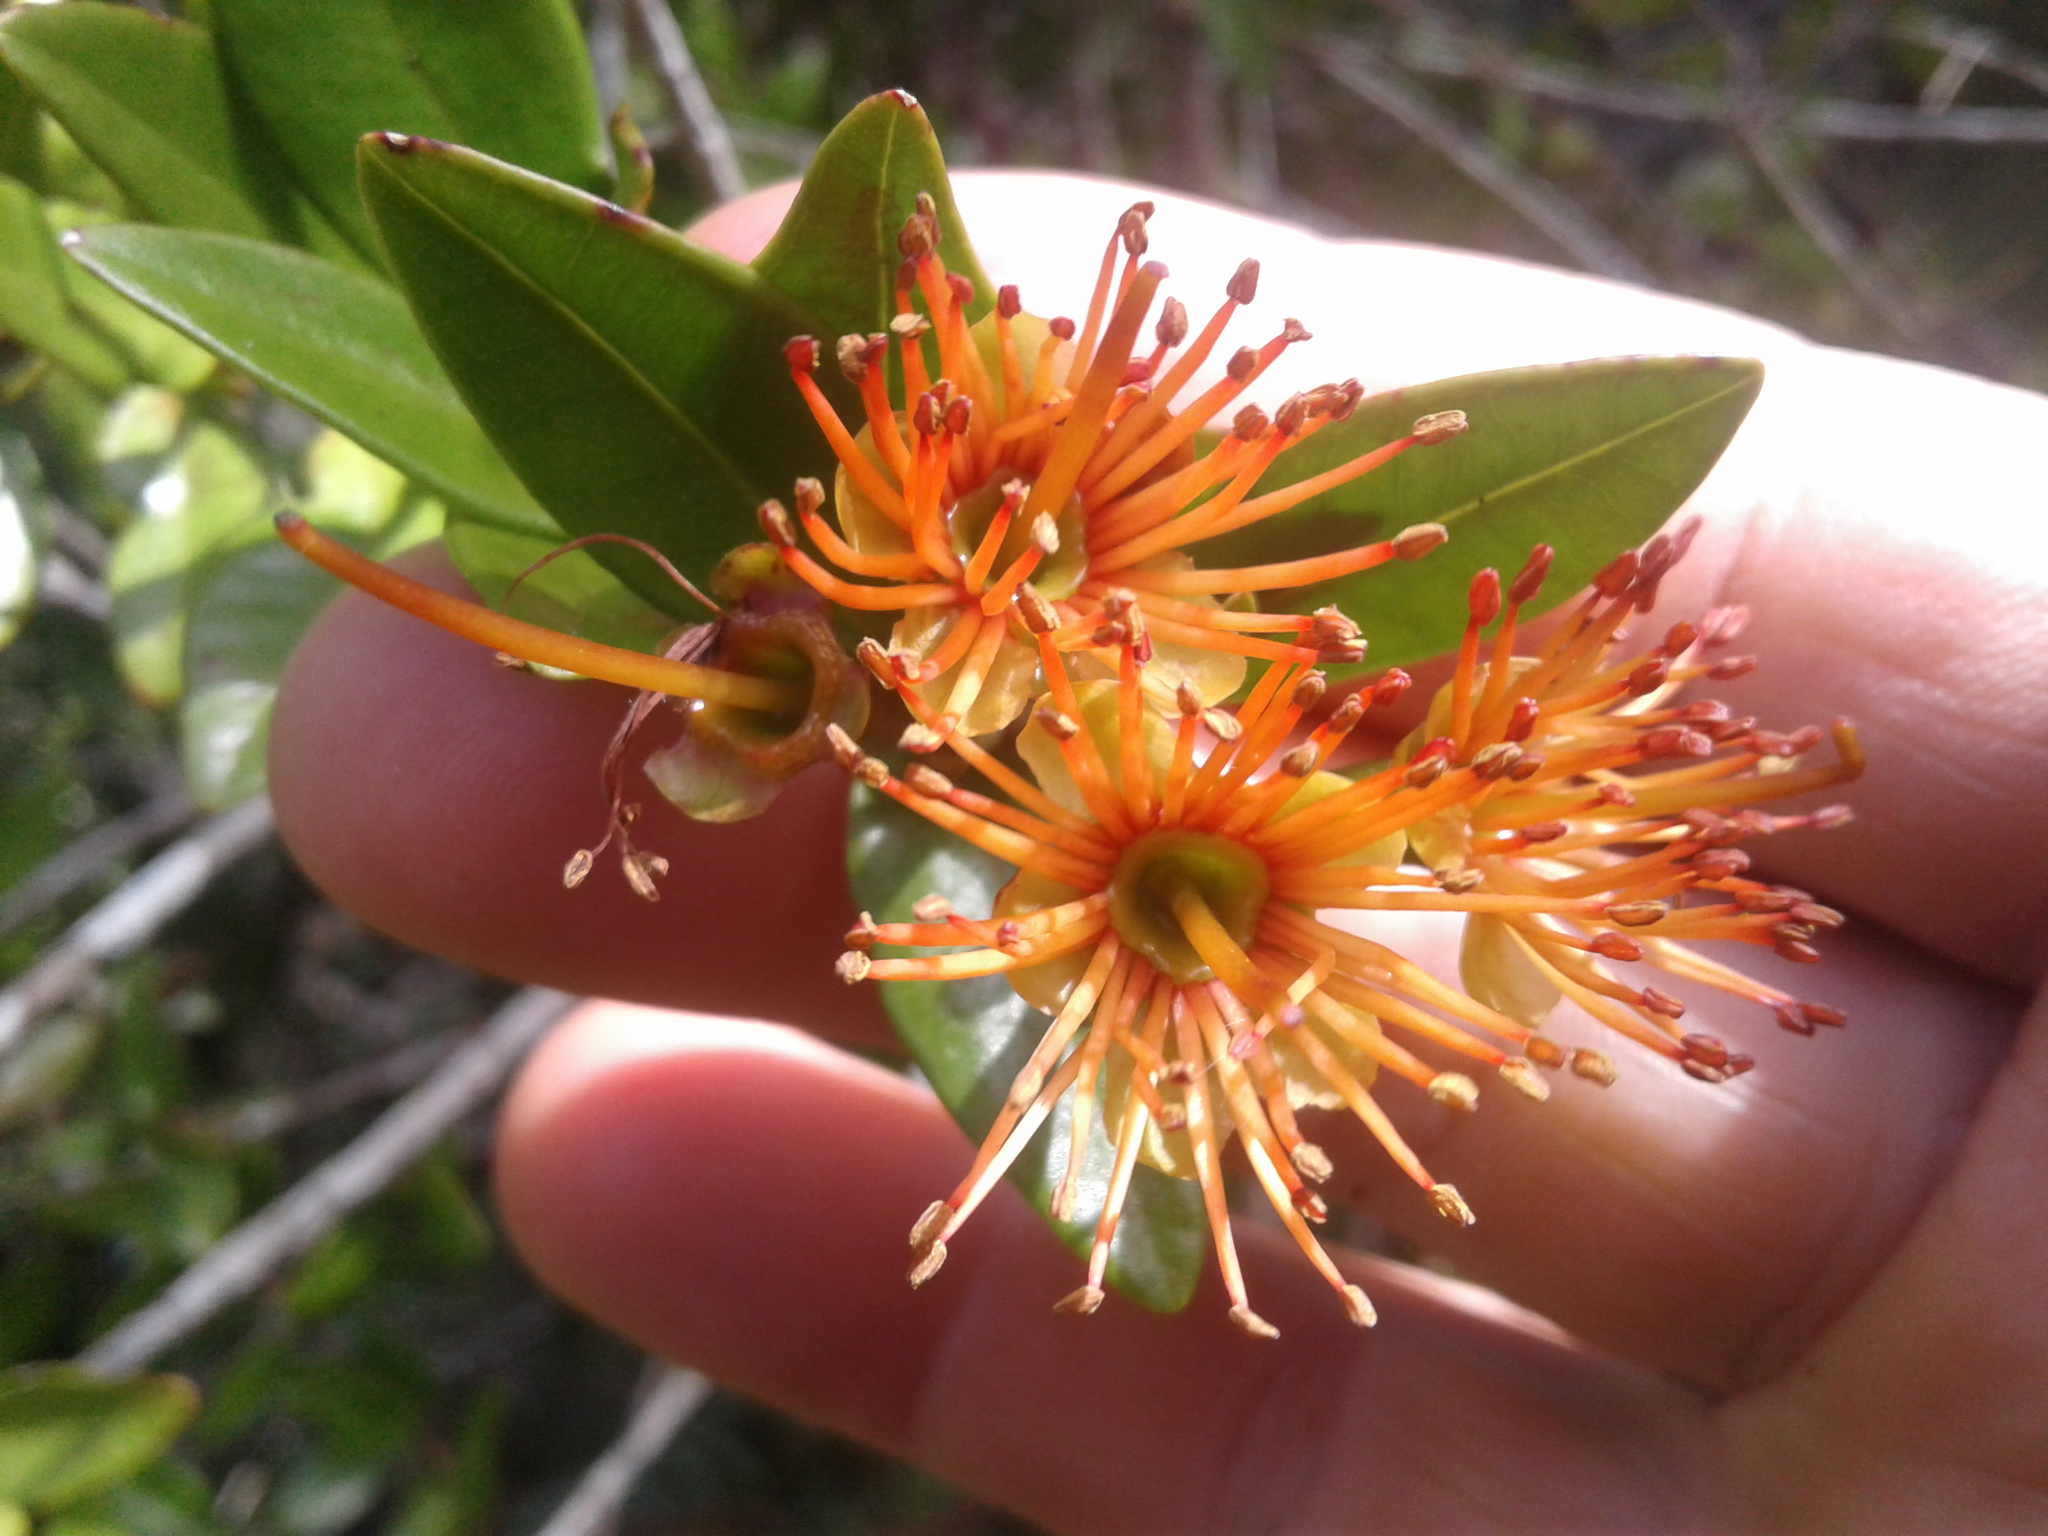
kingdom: Plantae
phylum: Tracheophyta
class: Magnoliopsida
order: Myrtales
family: Myrtaceae
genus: Metrosideros
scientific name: Metrosideros fulgens
